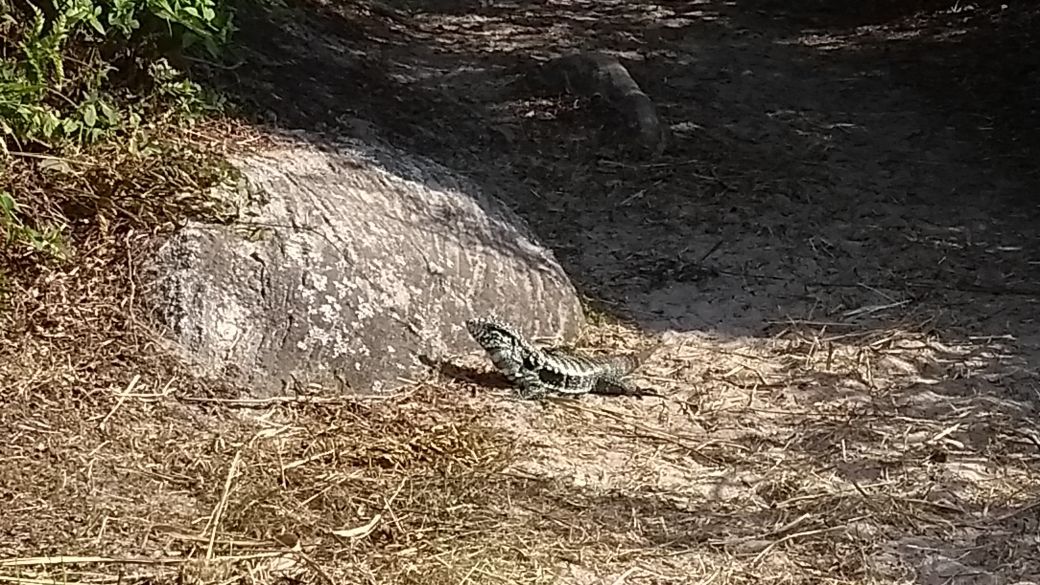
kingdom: Animalia
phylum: Chordata
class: Squamata
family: Teiidae
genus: Salvator
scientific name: Salvator merianae
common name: Argentine black and white tegu
